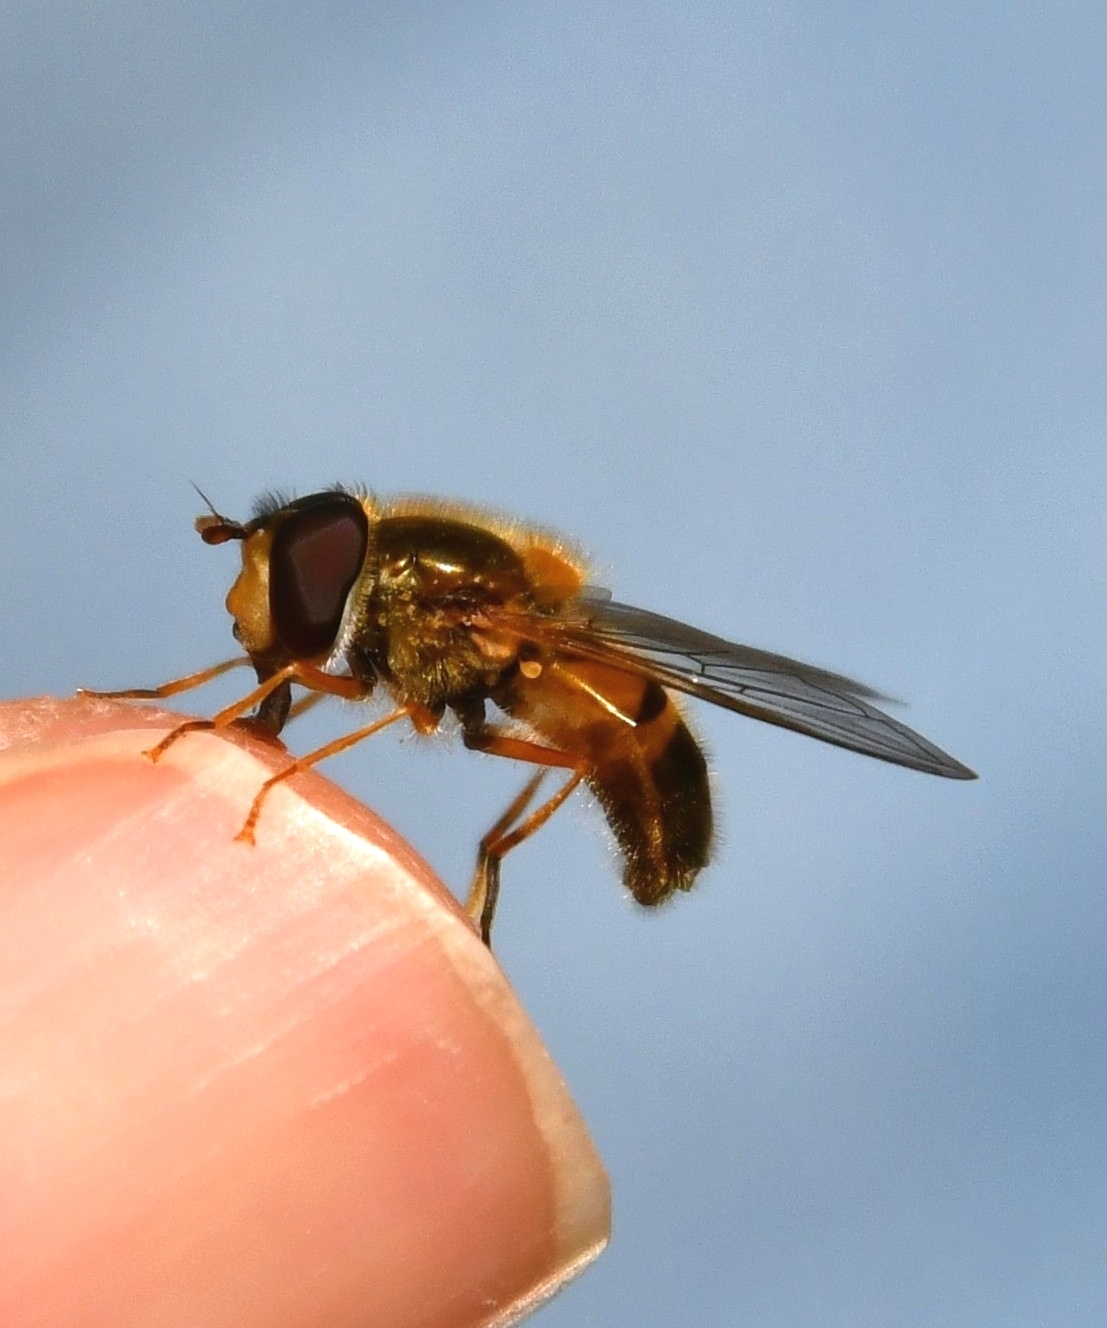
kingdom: Animalia
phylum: Arthropoda
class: Insecta
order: Diptera
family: Syrphidae
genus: Epistrophe
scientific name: Epistrophe eligans
